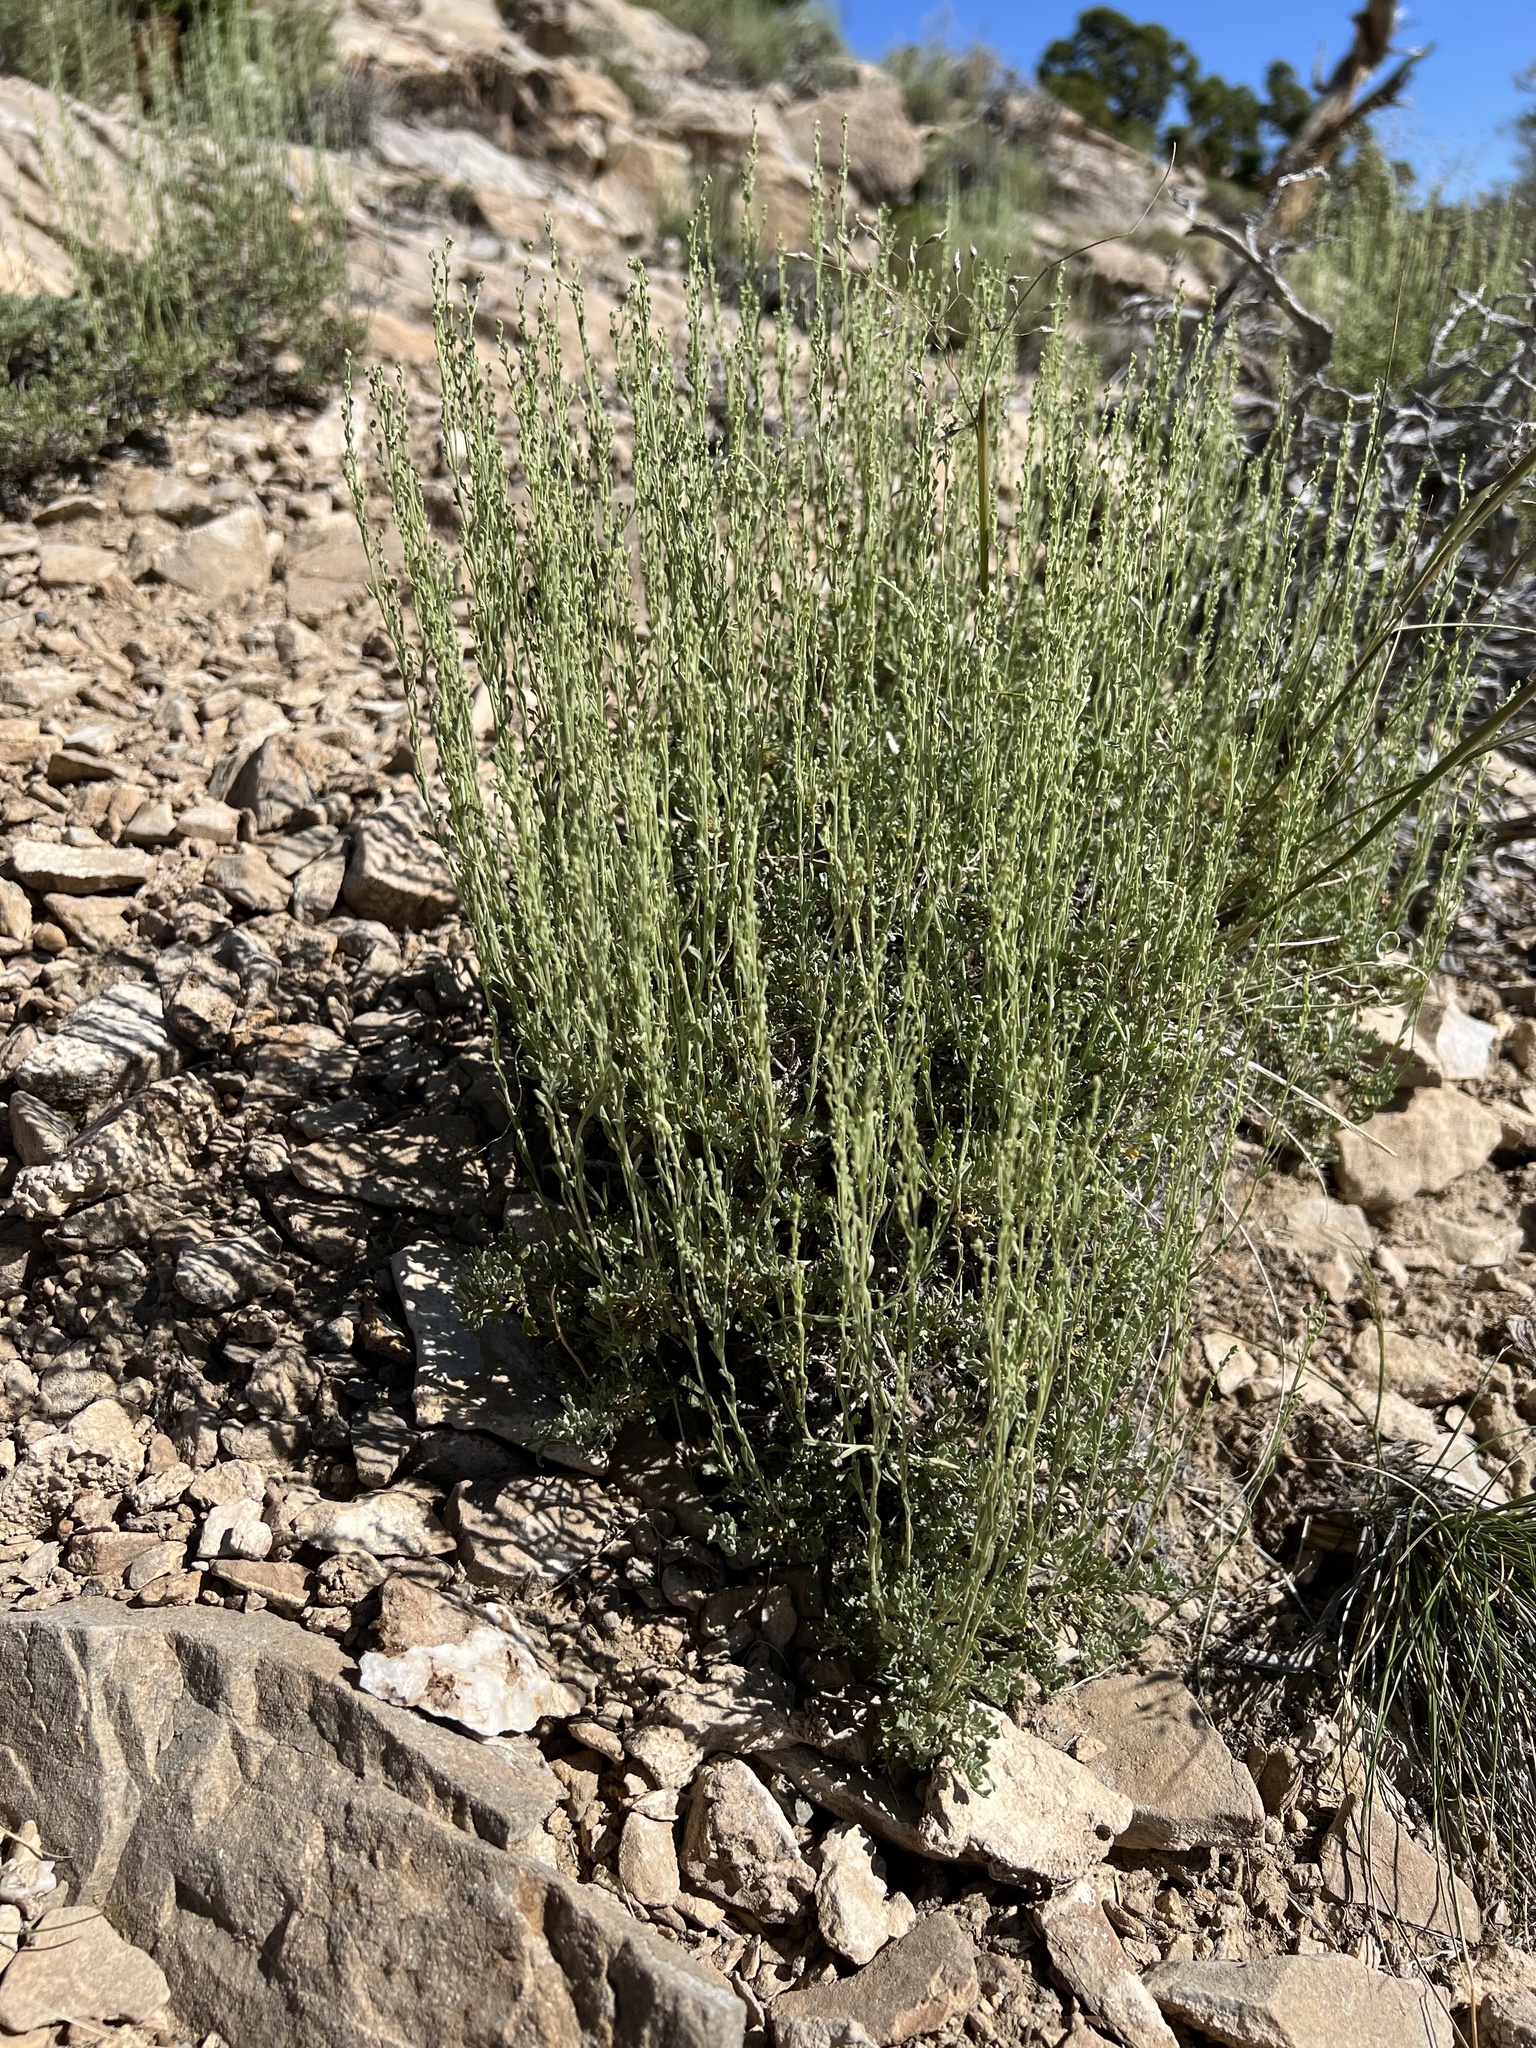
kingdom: Plantae
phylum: Tracheophyta
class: Magnoliopsida
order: Asterales
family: Asteraceae
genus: Artemisia
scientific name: Artemisia nova
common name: Black-sage
